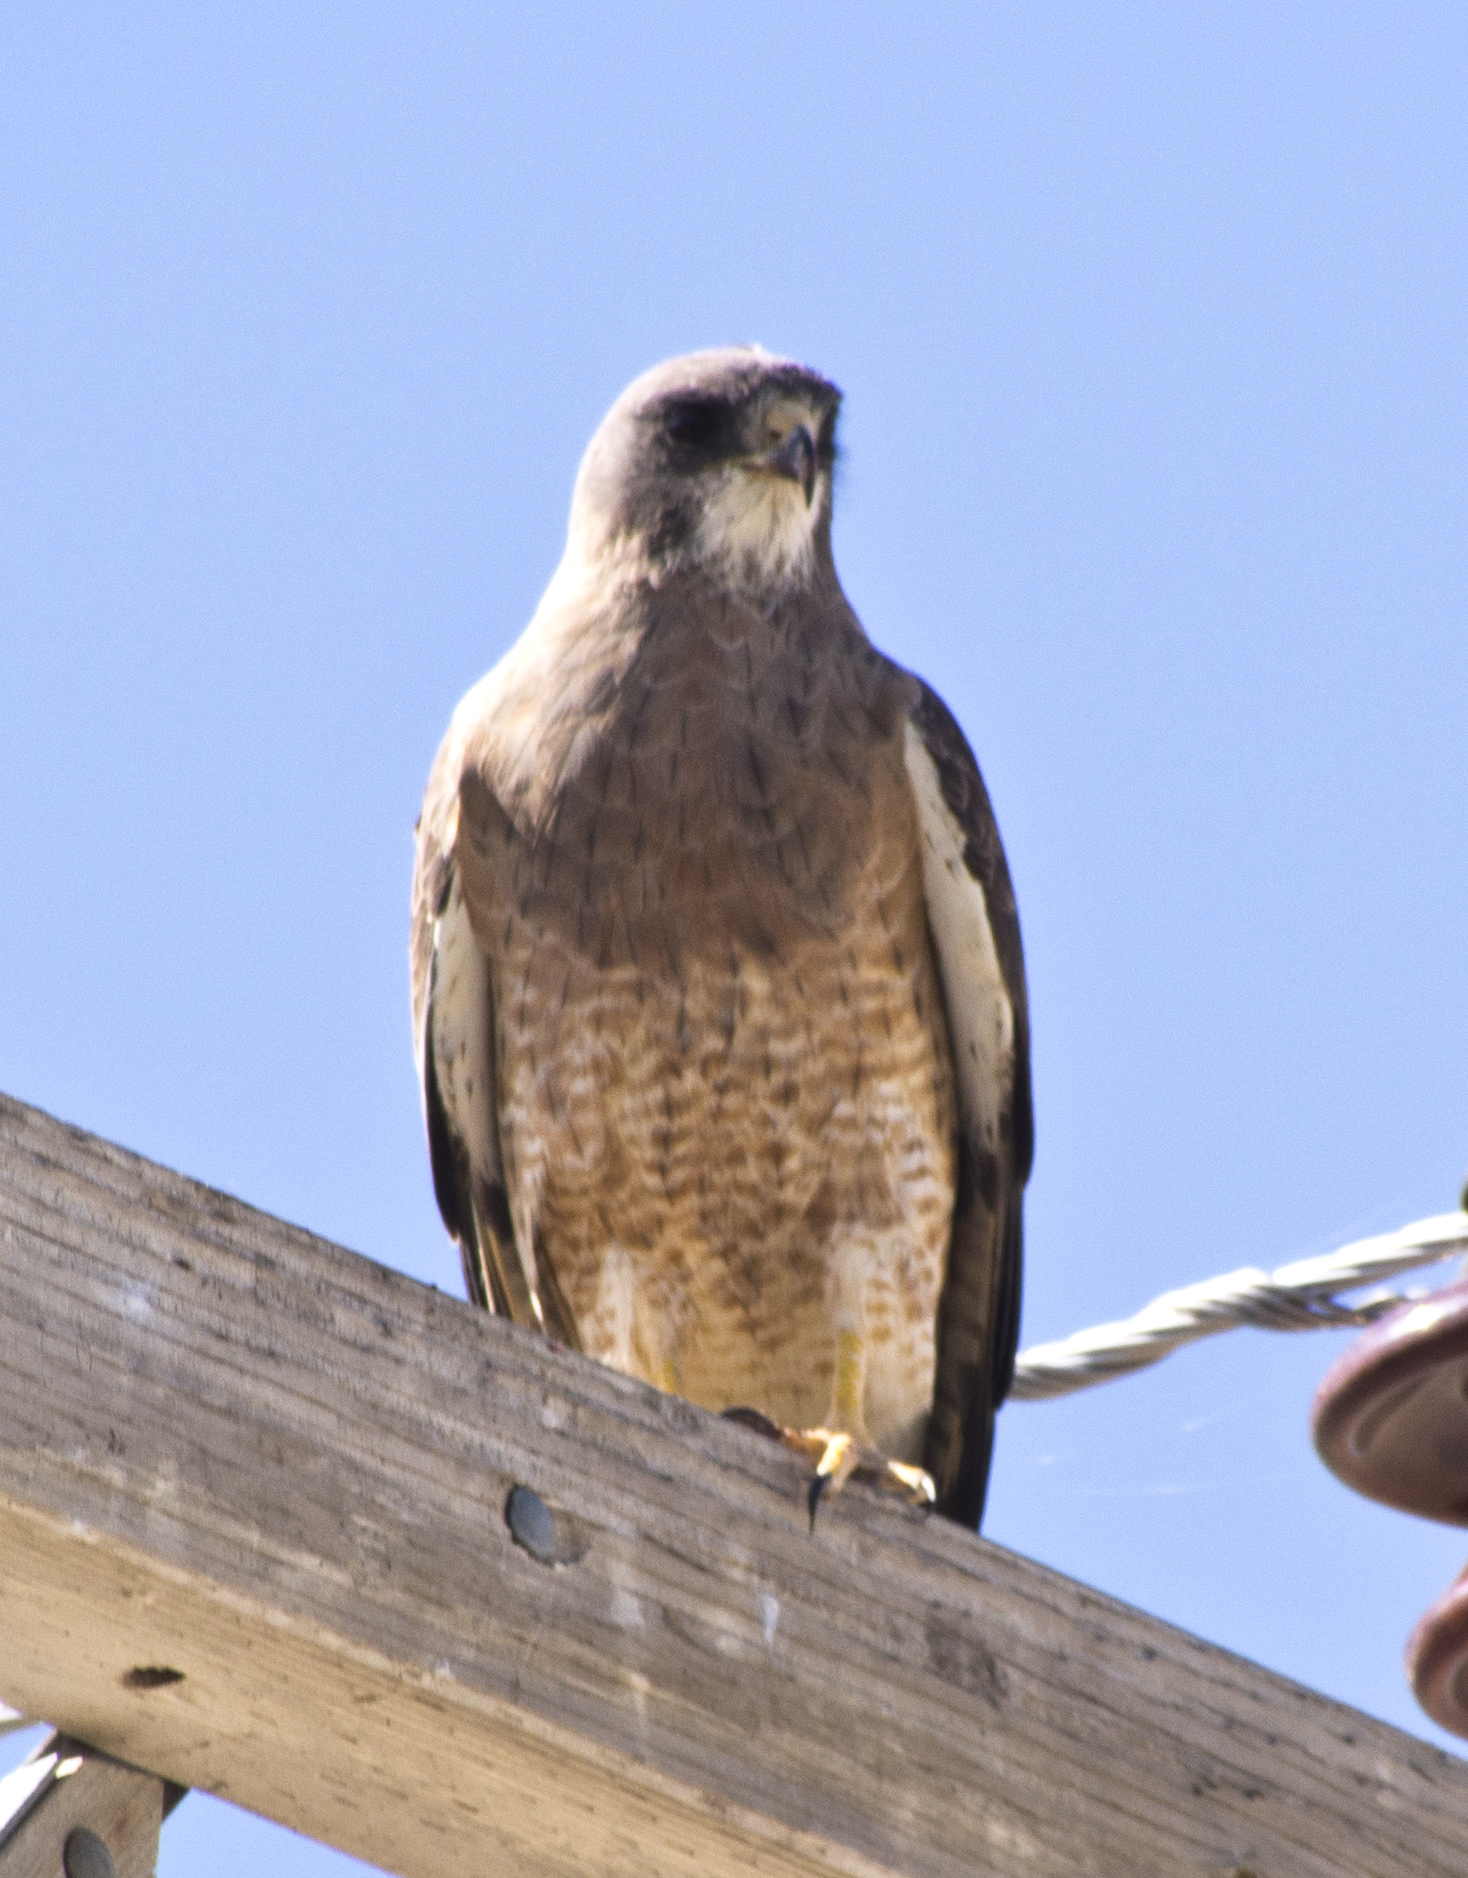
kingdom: Animalia
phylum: Chordata
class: Aves
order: Accipitriformes
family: Accipitridae
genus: Buteo
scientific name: Buteo swainsoni
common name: Swainson's hawk
